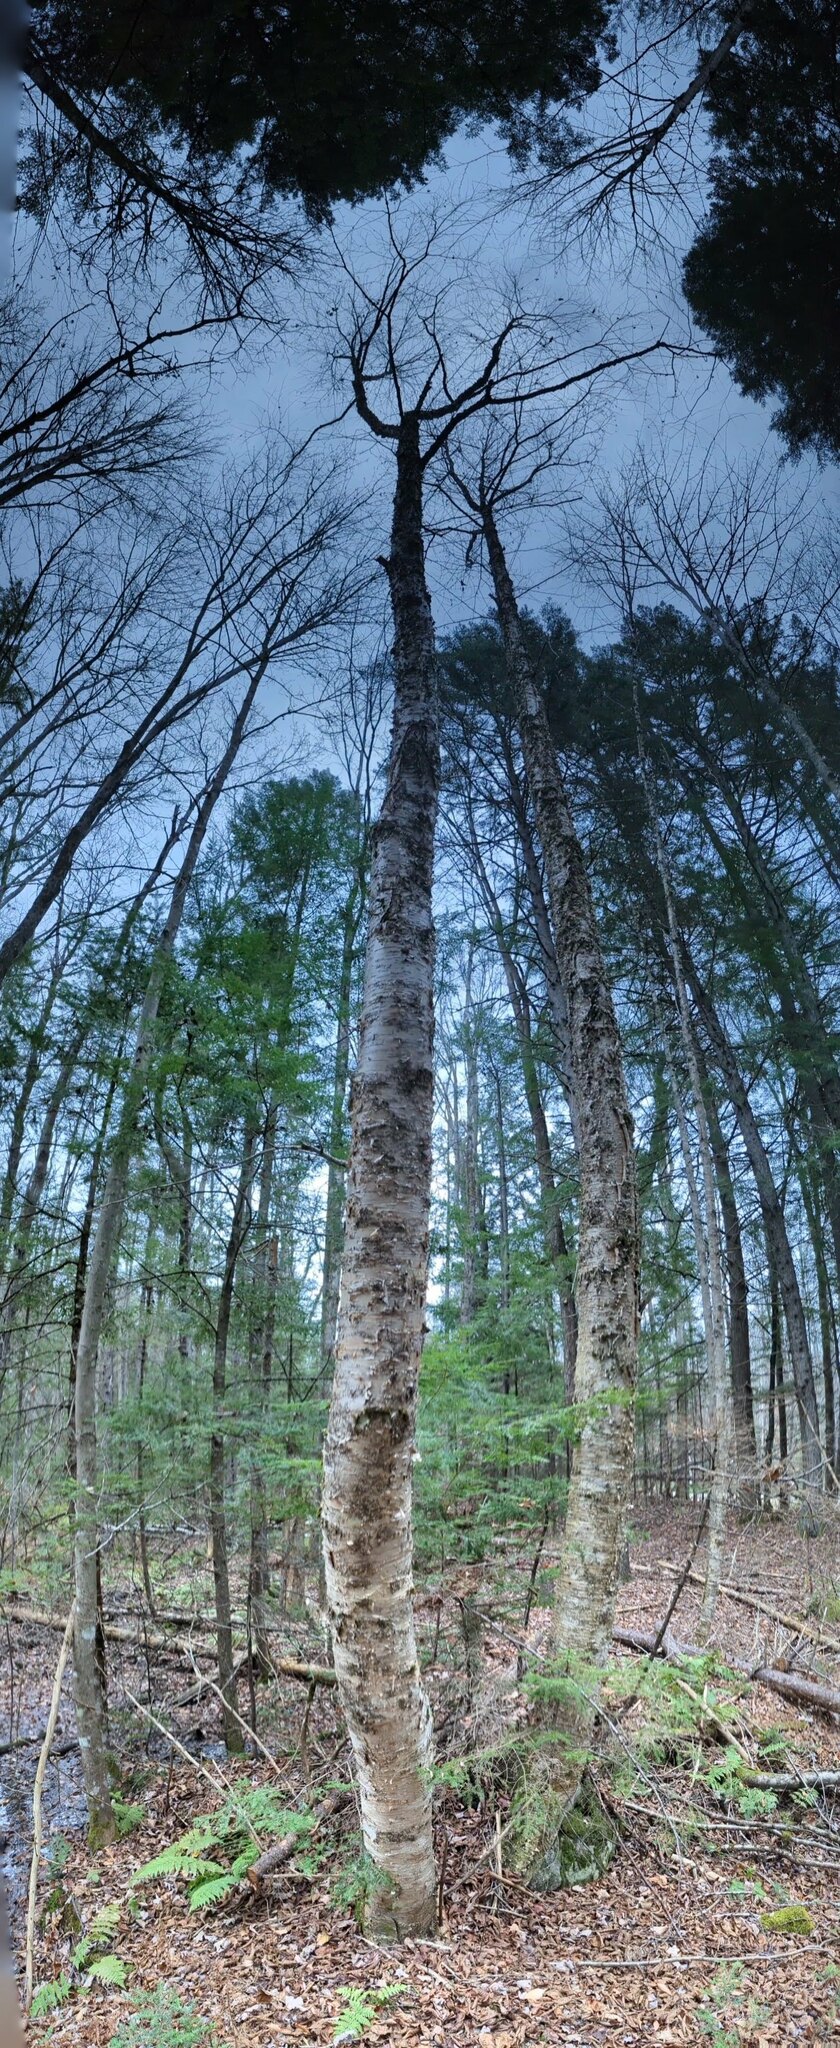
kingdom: Plantae
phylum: Tracheophyta
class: Magnoliopsida
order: Fagales
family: Betulaceae
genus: Betula
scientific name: Betula alleghaniensis
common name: Yellow birch
